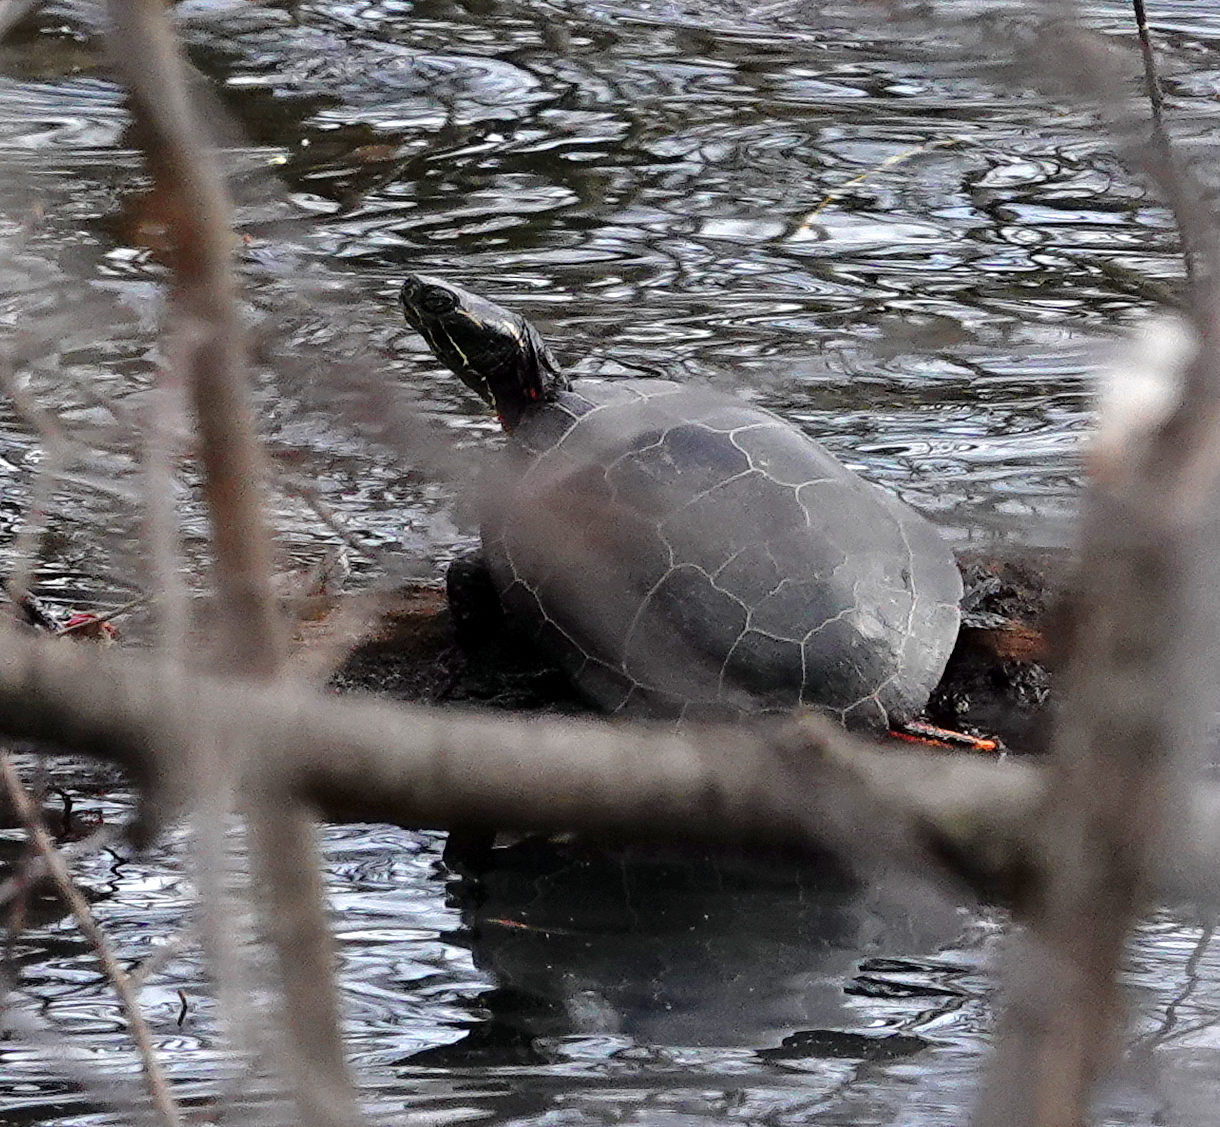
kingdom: Animalia
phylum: Chordata
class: Testudines
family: Emydidae
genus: Chrysemys
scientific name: Chrysemys picta
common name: Painted turtle
